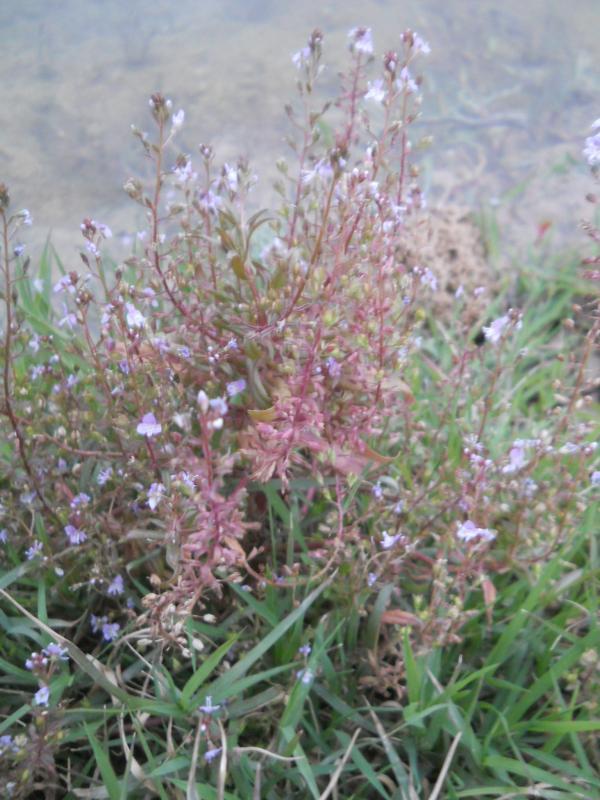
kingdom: Plantae
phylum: Tracheophyta
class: Magnoliopsida
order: Lamiales
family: Plantaginaceae
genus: Veronica
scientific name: Veronica anagallis-aquatica
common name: Water speedwell
